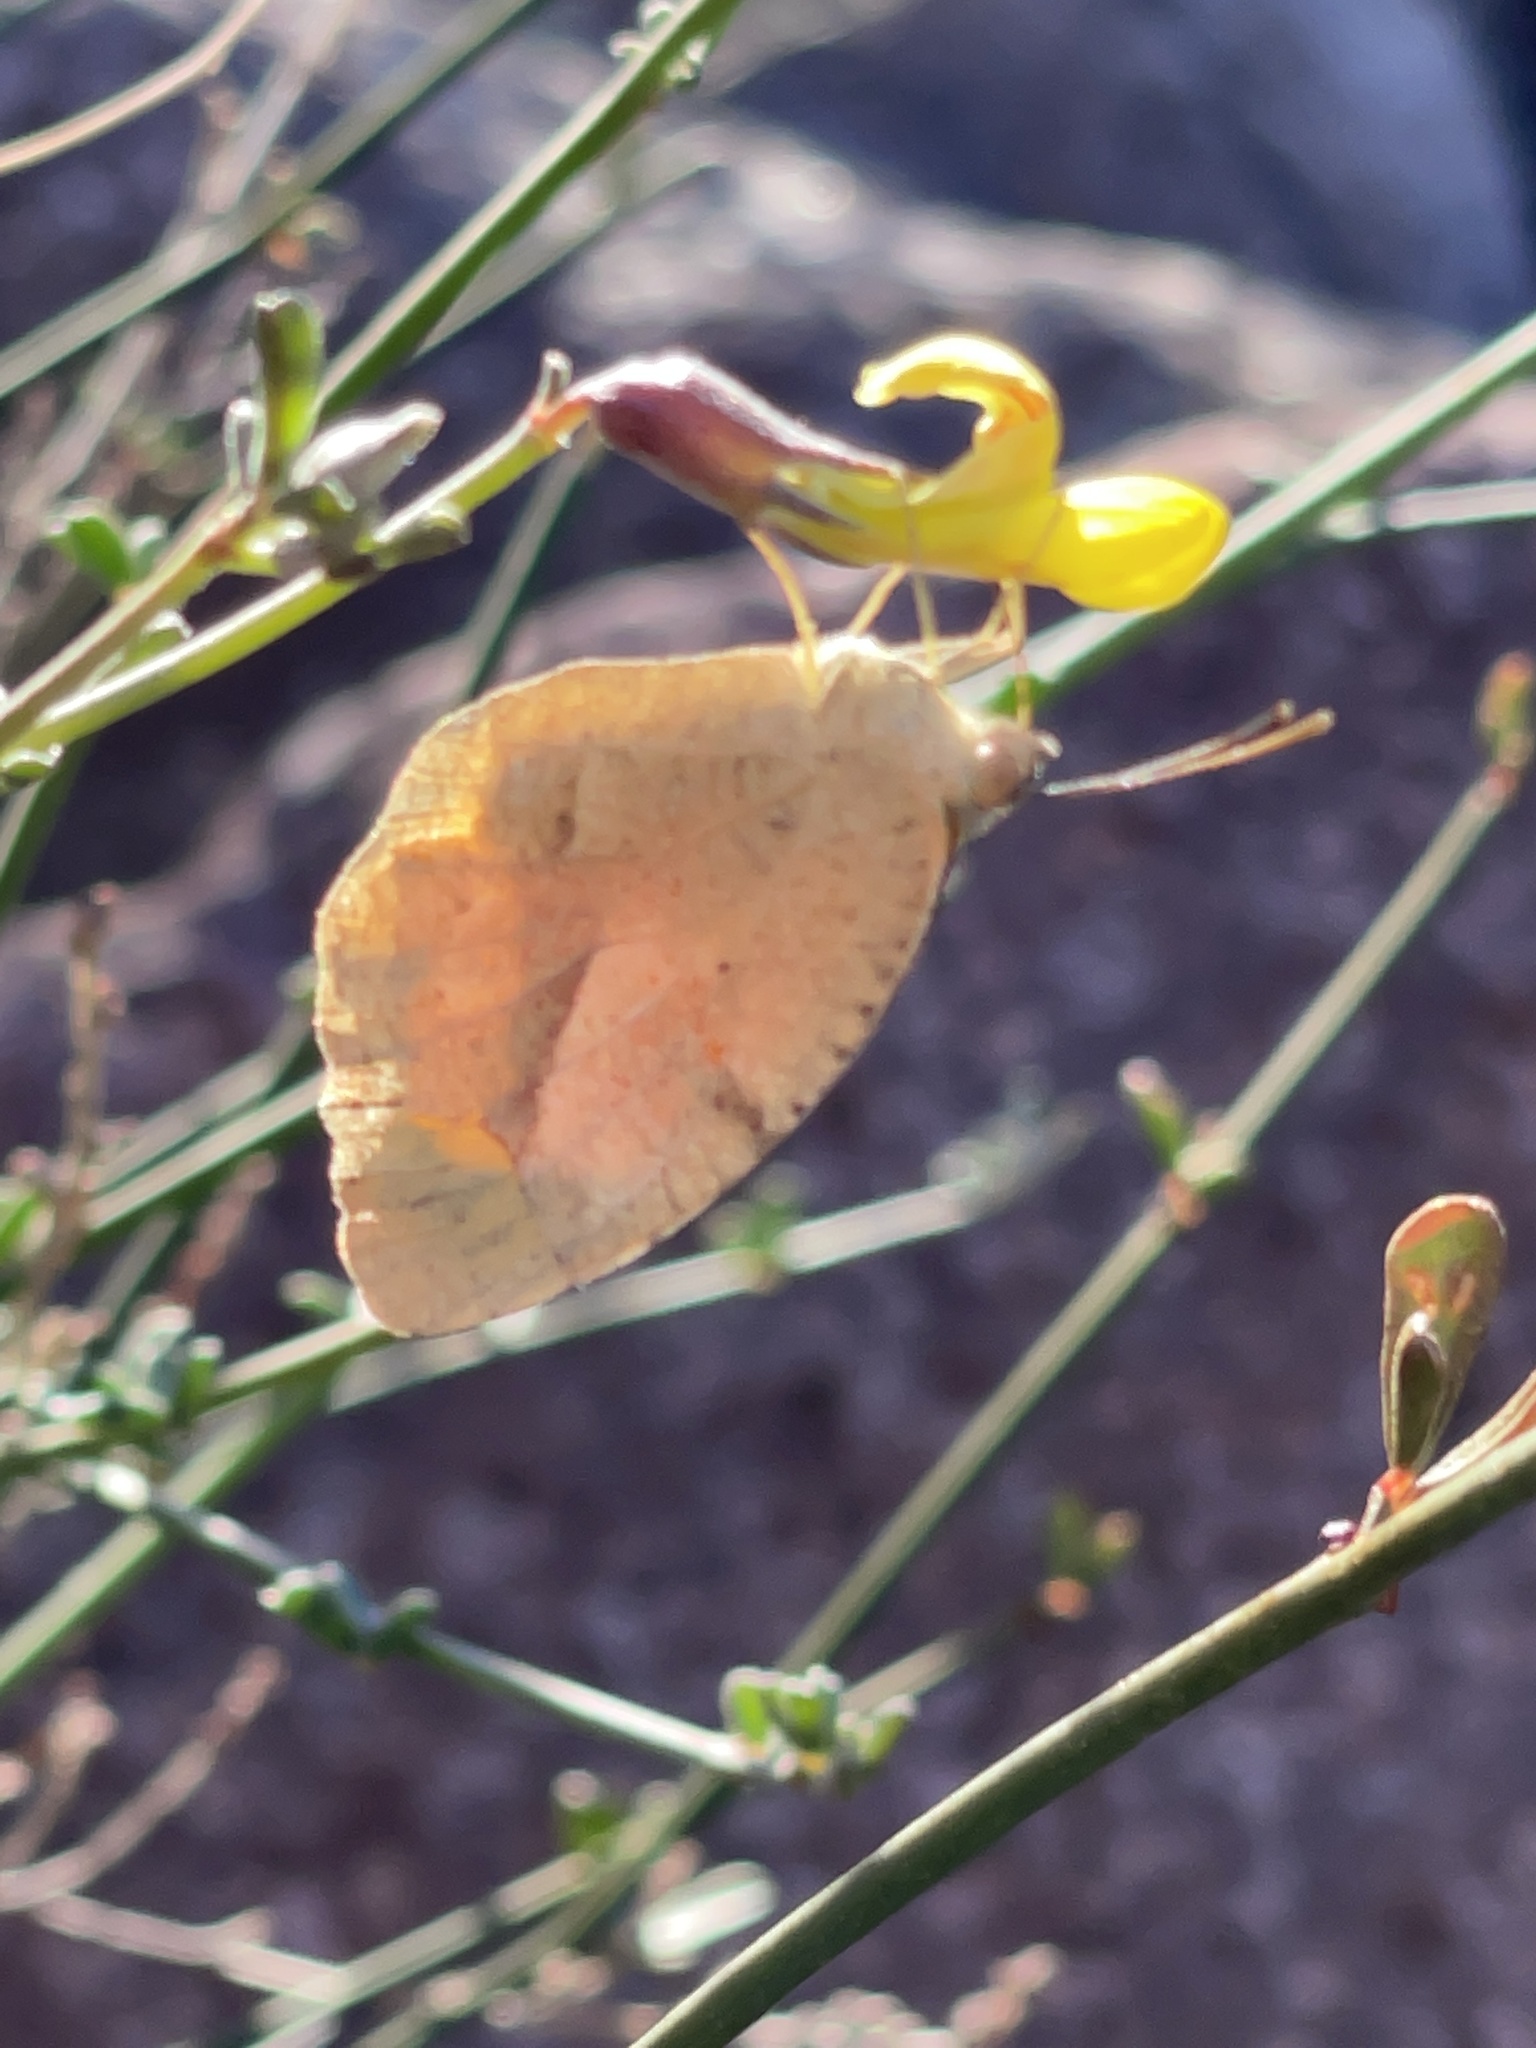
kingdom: Animalia
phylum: Arthropoda
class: Insecta
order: Lepidoptera
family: Pieridae
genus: Abaeis
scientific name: Abaeis nicippe
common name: Sleepy orange
